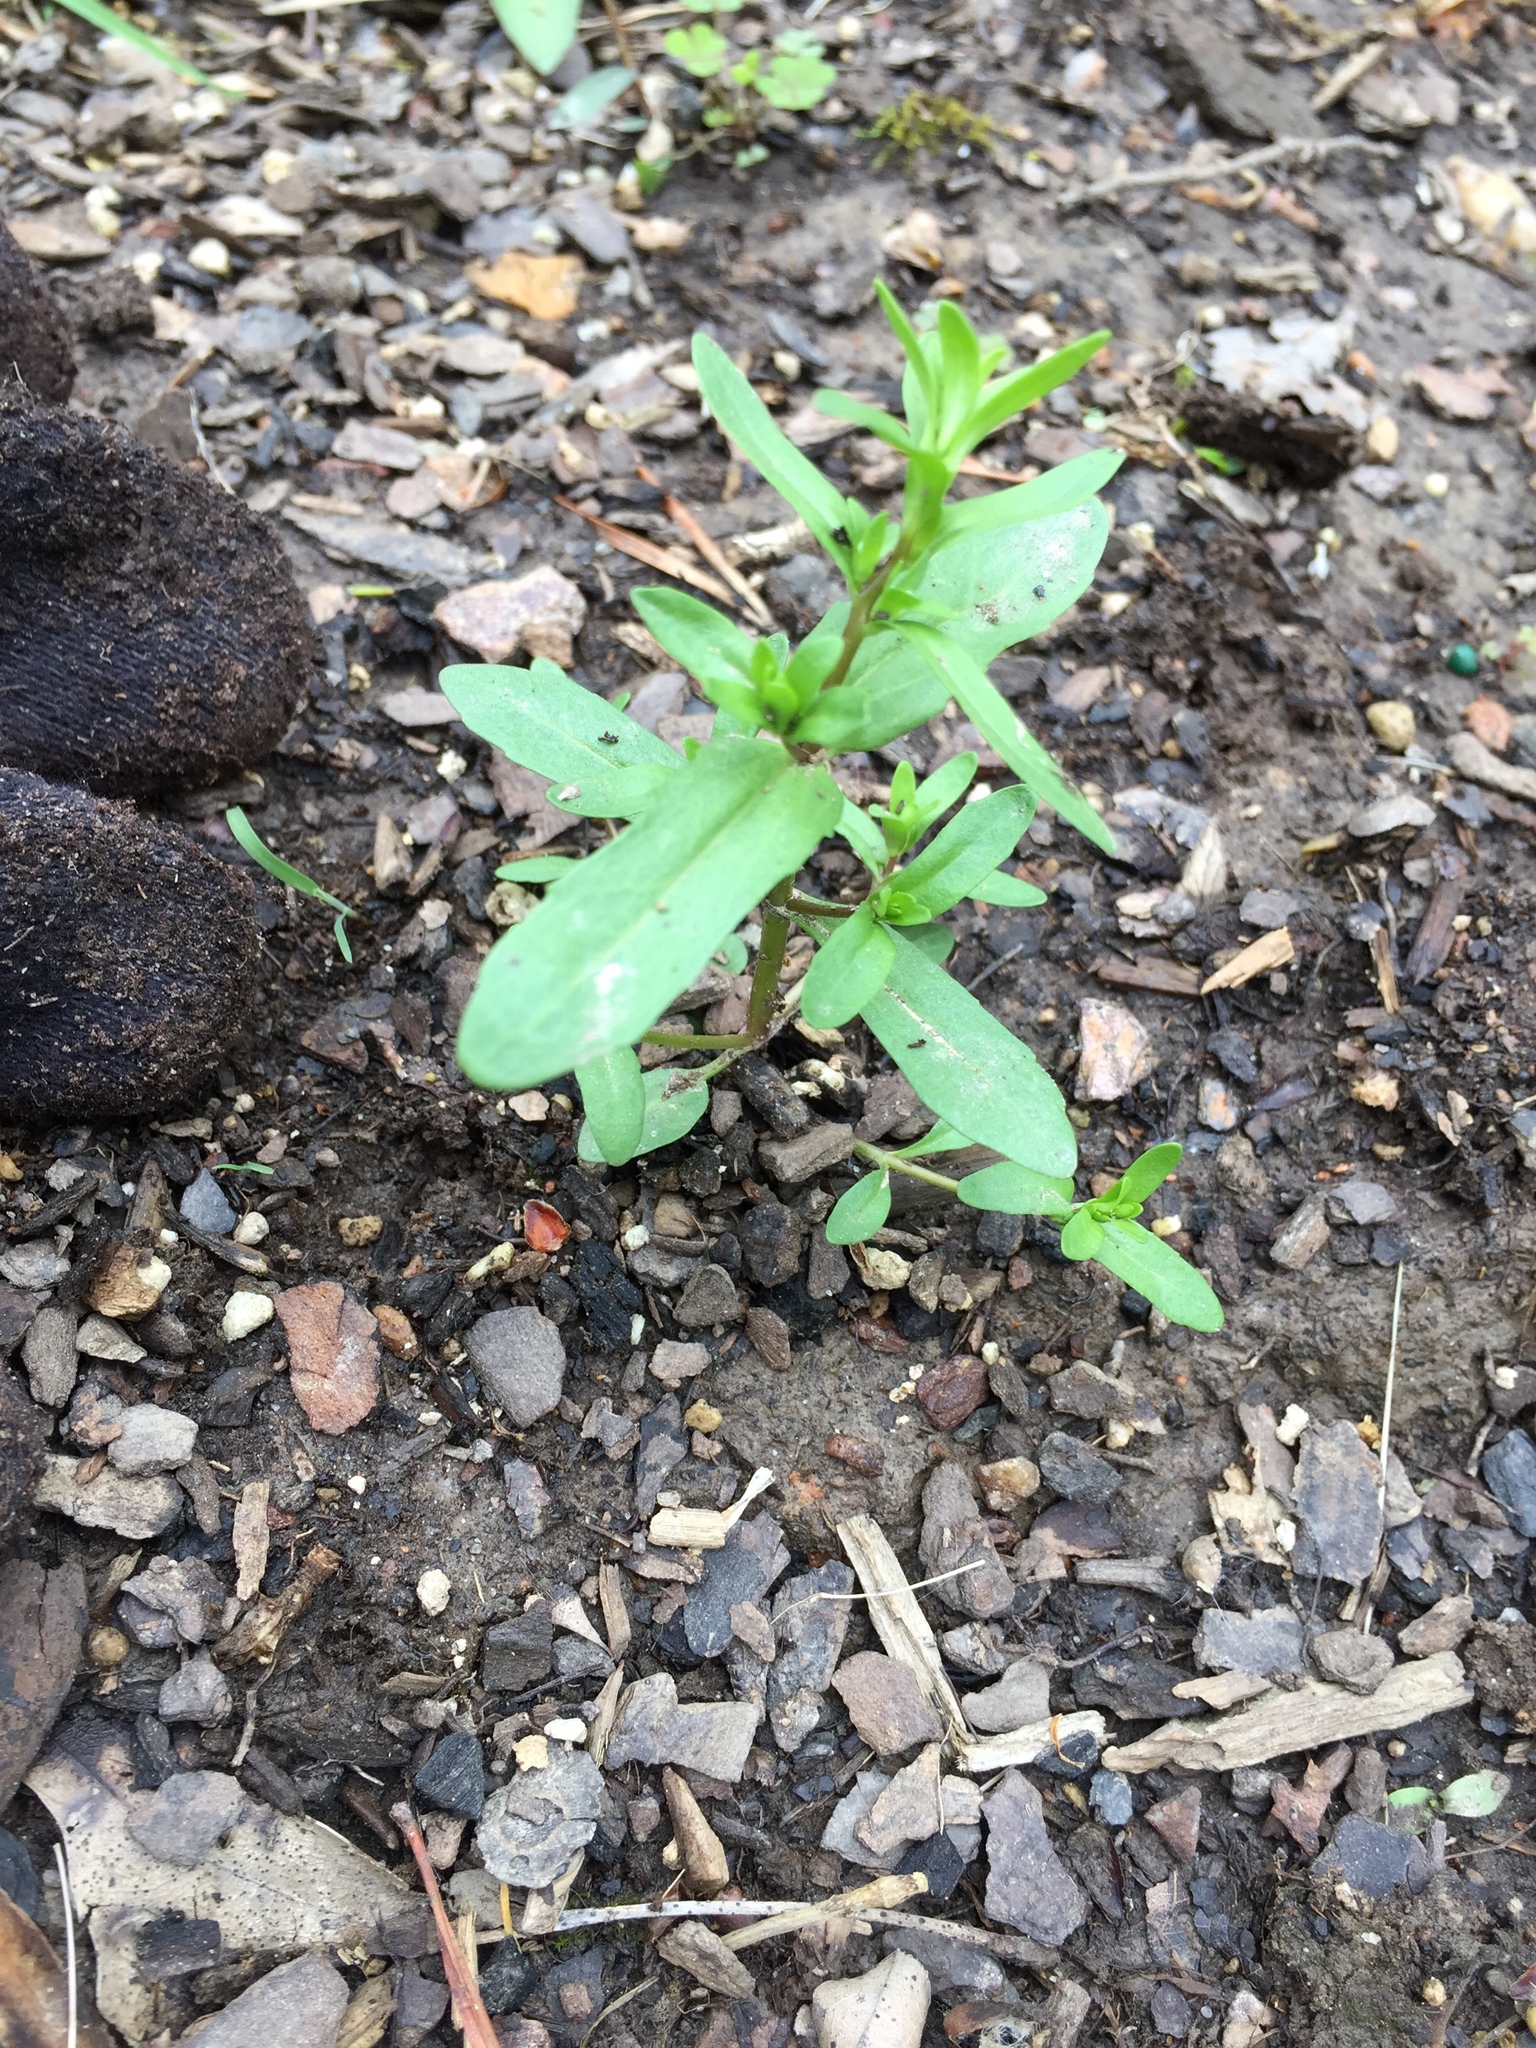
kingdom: Plantae
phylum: Tracheophyta
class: Magnoliopsida
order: Lamiales
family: Plantaginaceae
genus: Veronica
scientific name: Veronica peregrina
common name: Neckweed
